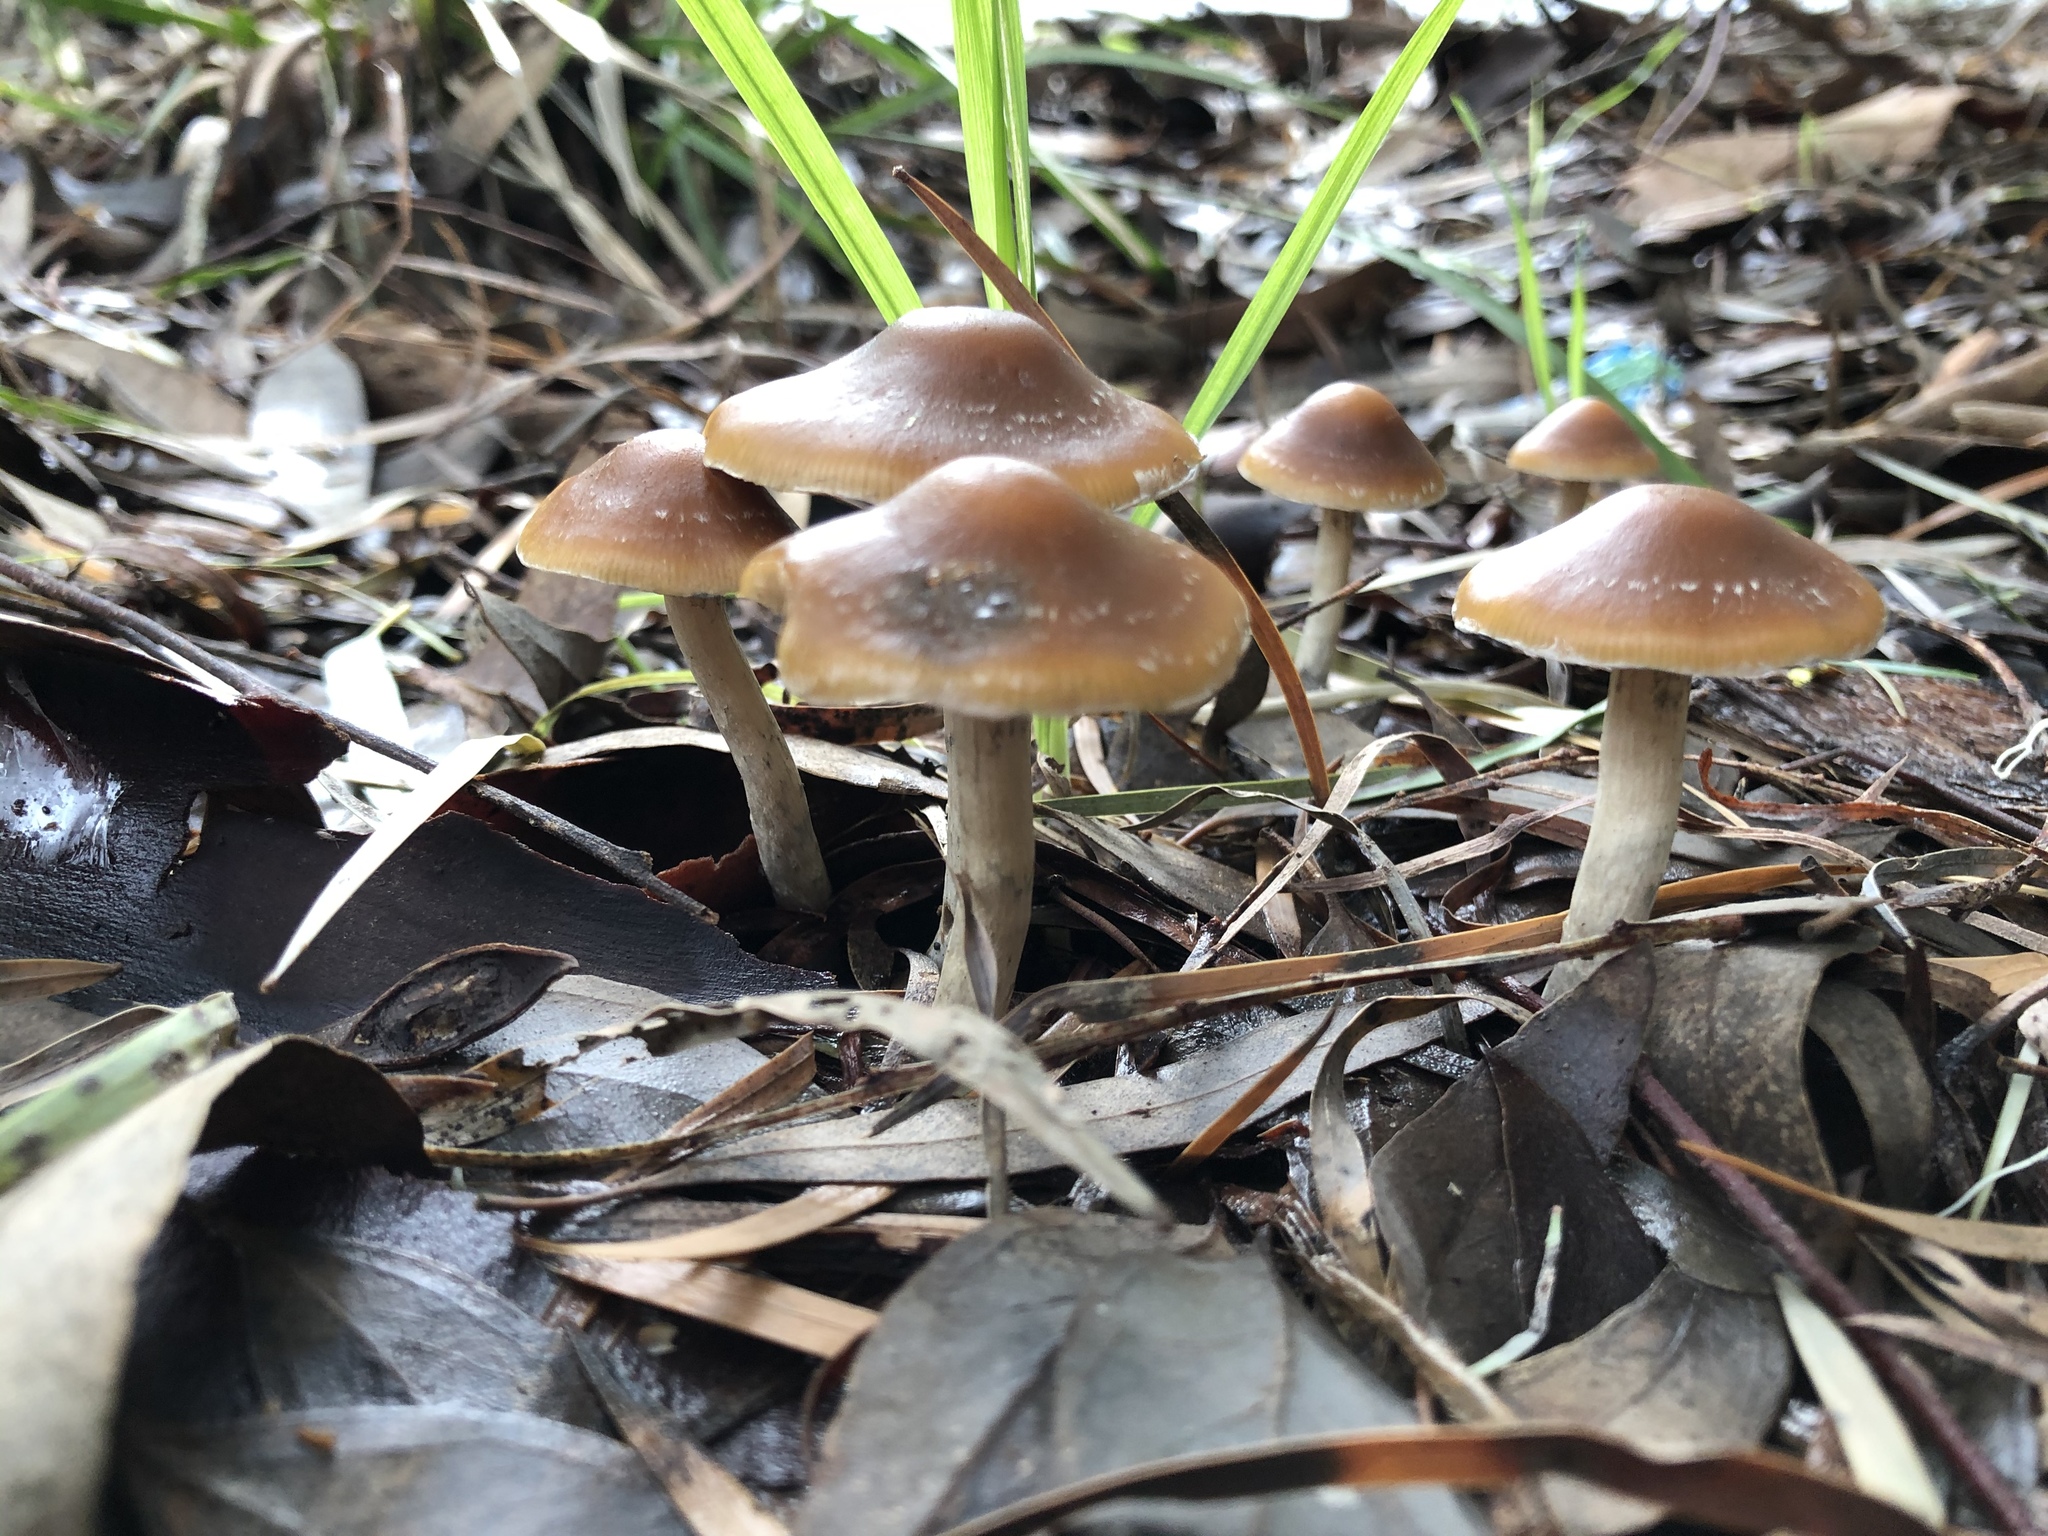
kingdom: Fungi
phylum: Basidiomycota
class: Agaricomycetes
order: Agaricales
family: Hymenogastraceae
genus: Psilocybe
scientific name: Psilocybe subaeruginosa
